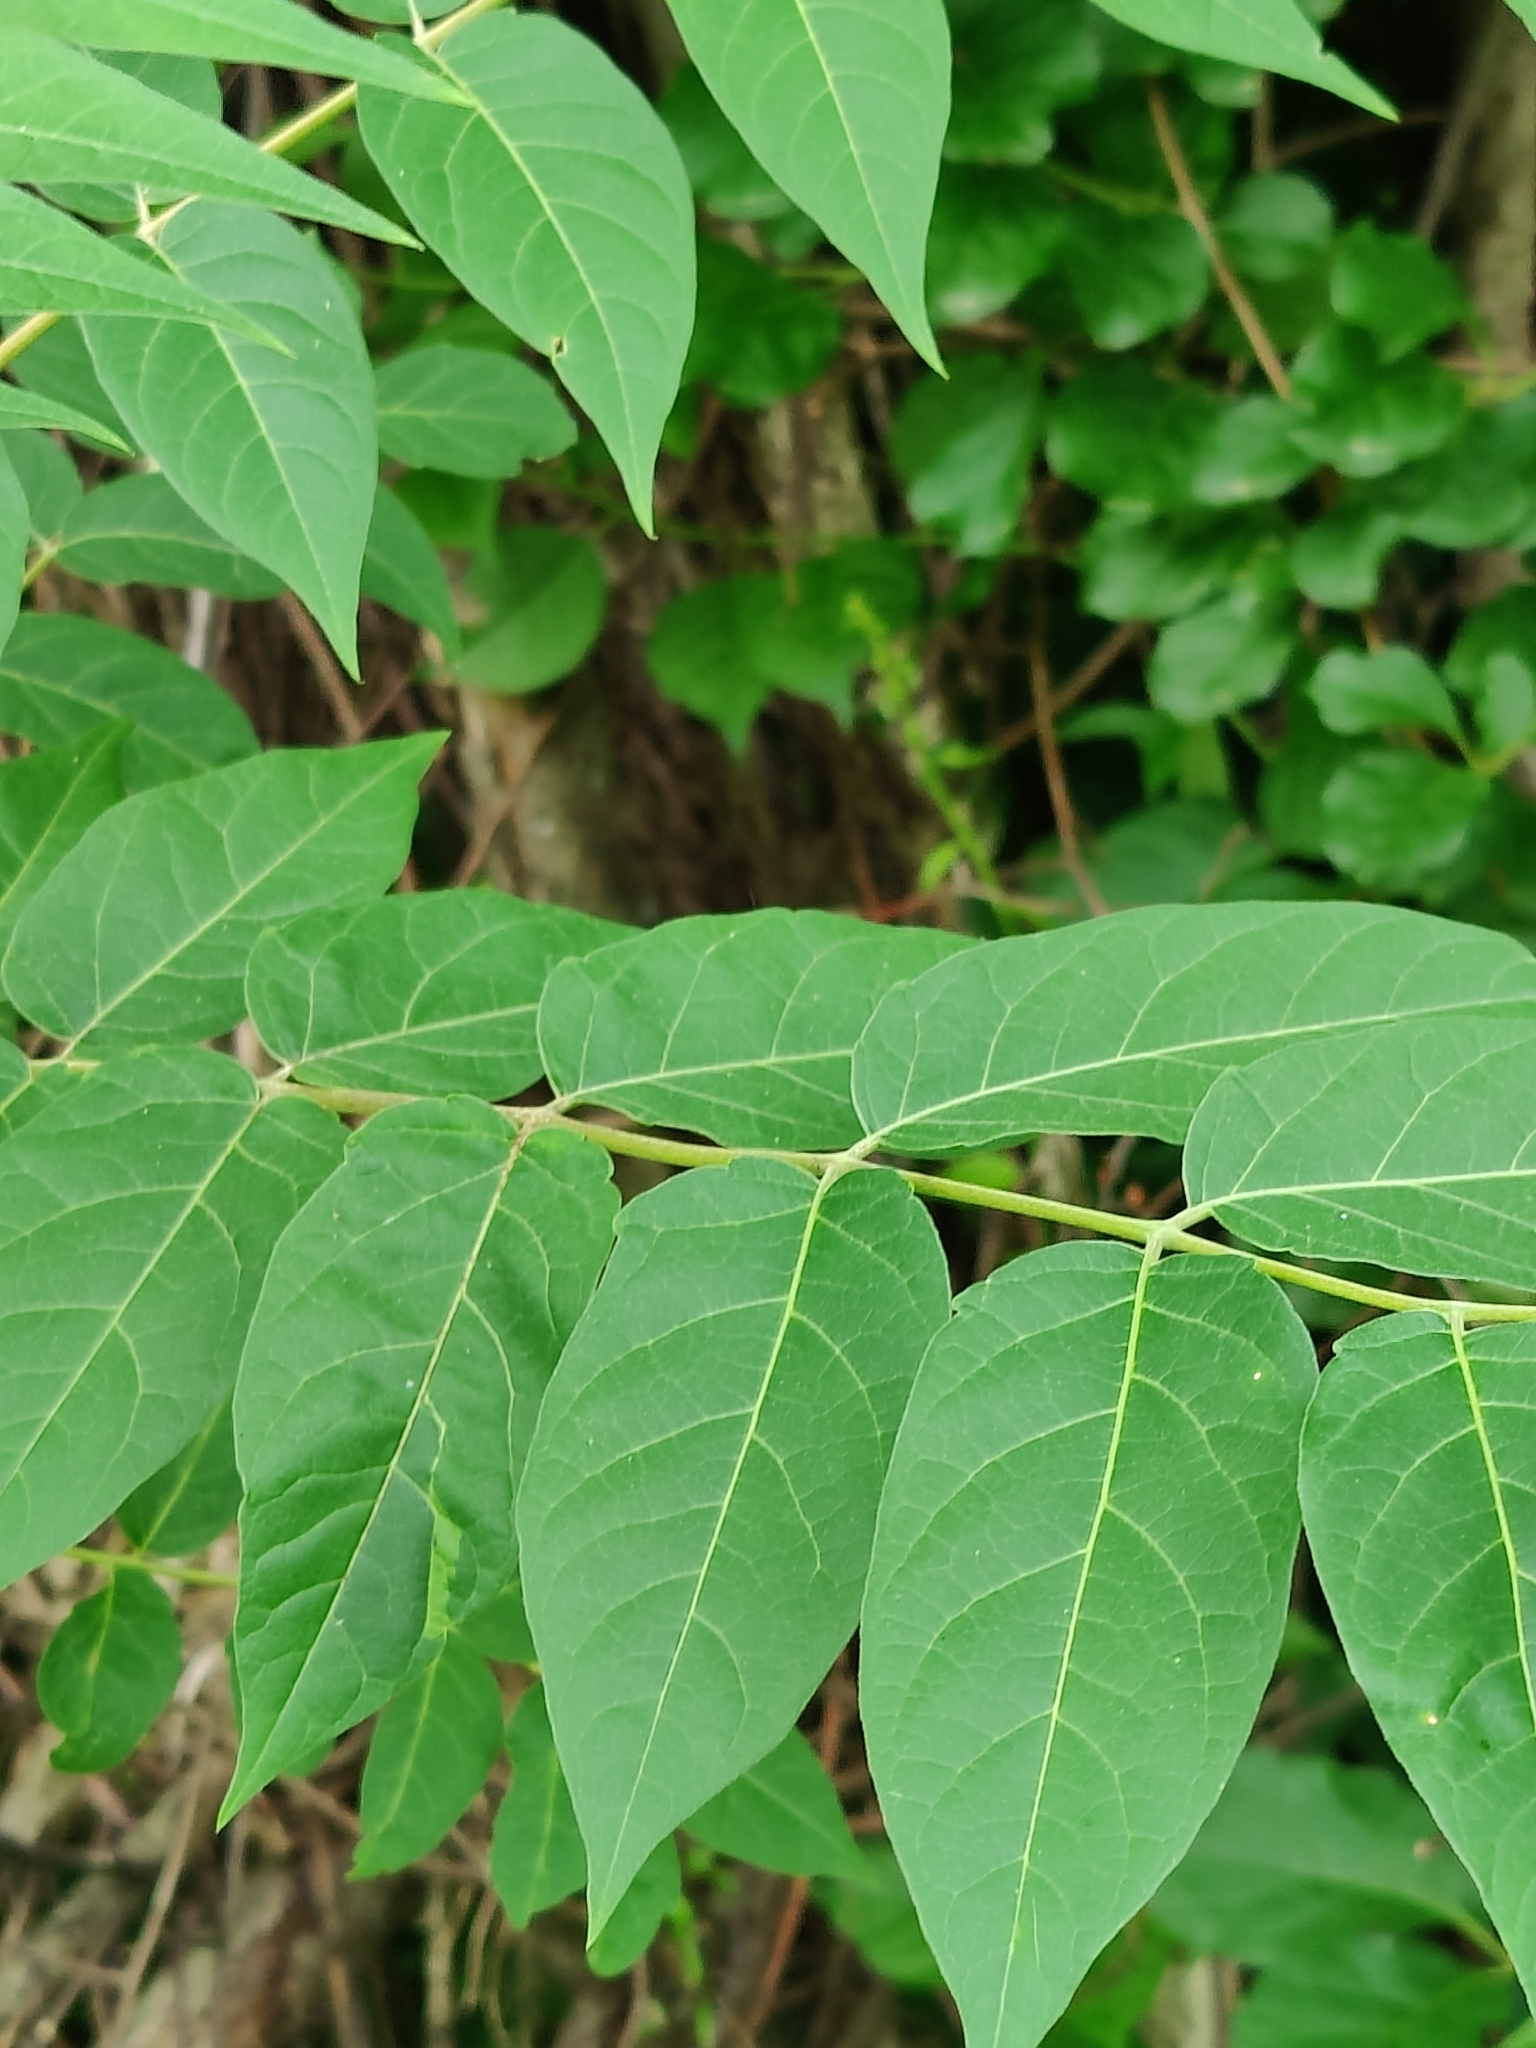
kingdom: Plantae
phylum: Tracheophyta
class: Magnoliopsida
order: Sapindales
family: Simaroubaceae
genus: Ailanthus
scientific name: Ailanthus altissima
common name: Tree-of-heaven
